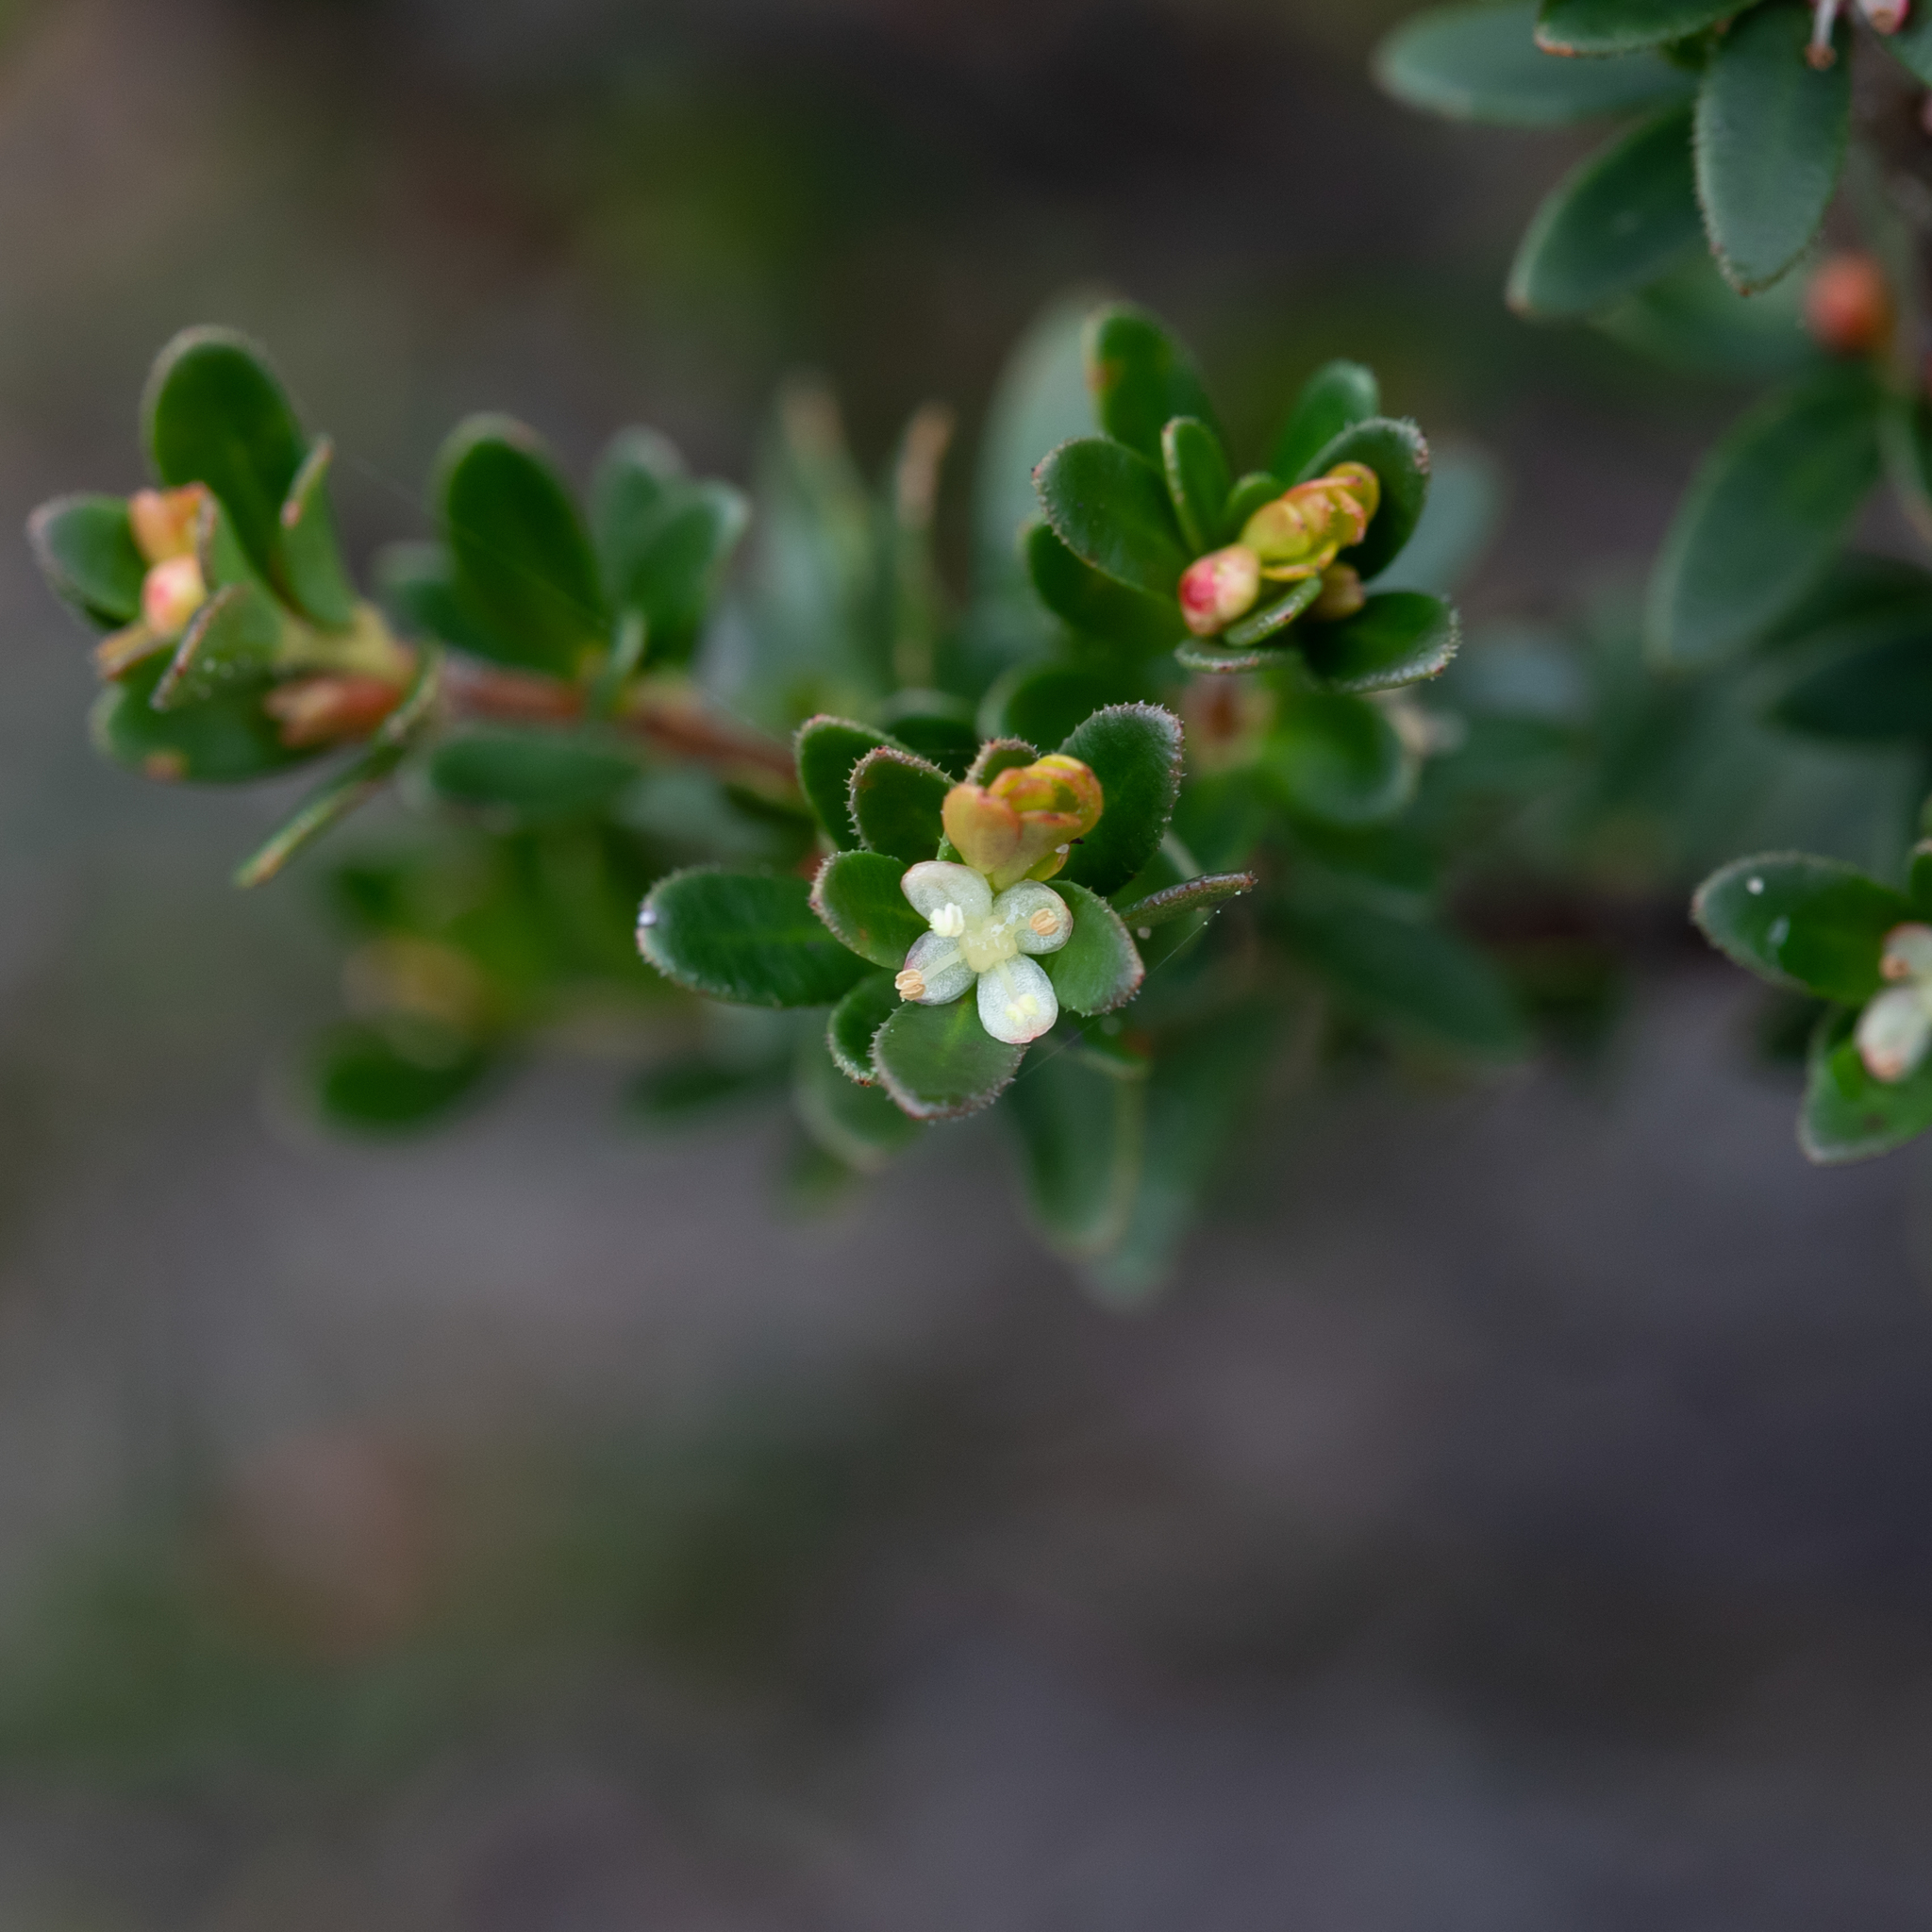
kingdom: Plantae
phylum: Tracheophyta
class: Magnoliopsida
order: Malpighiales
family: Picrodendraceae
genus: Micrantheum
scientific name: Micrantheum demissum
